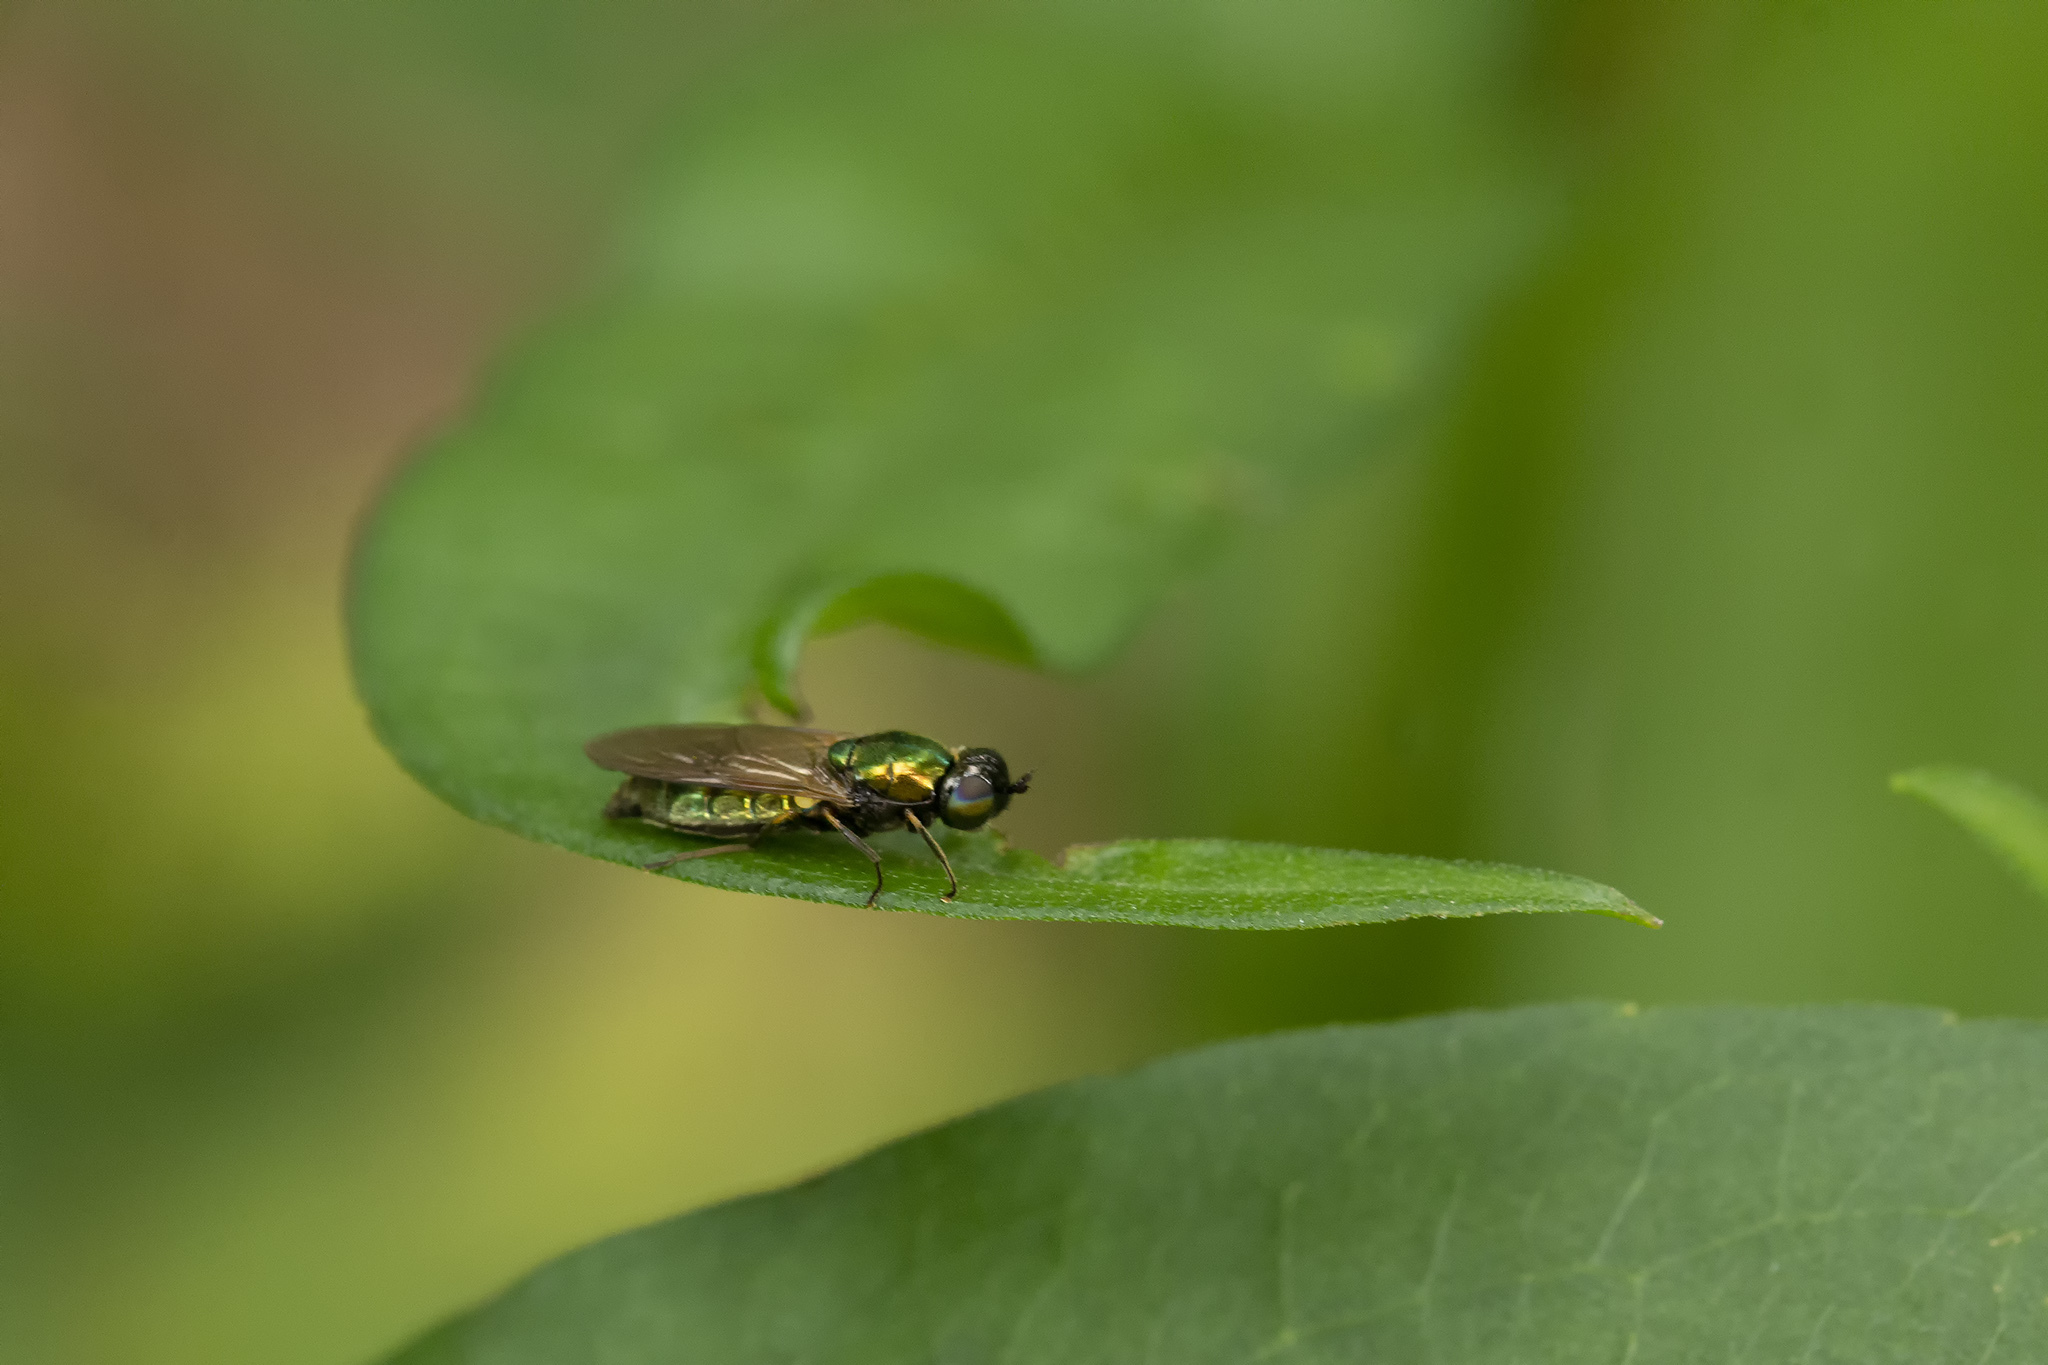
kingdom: Animalia
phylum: Arthropoda
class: Insecta
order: Diptera
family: Stratiomyidae
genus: Chloromyia
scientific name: Chloromyia formosa
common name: Soldier fly
